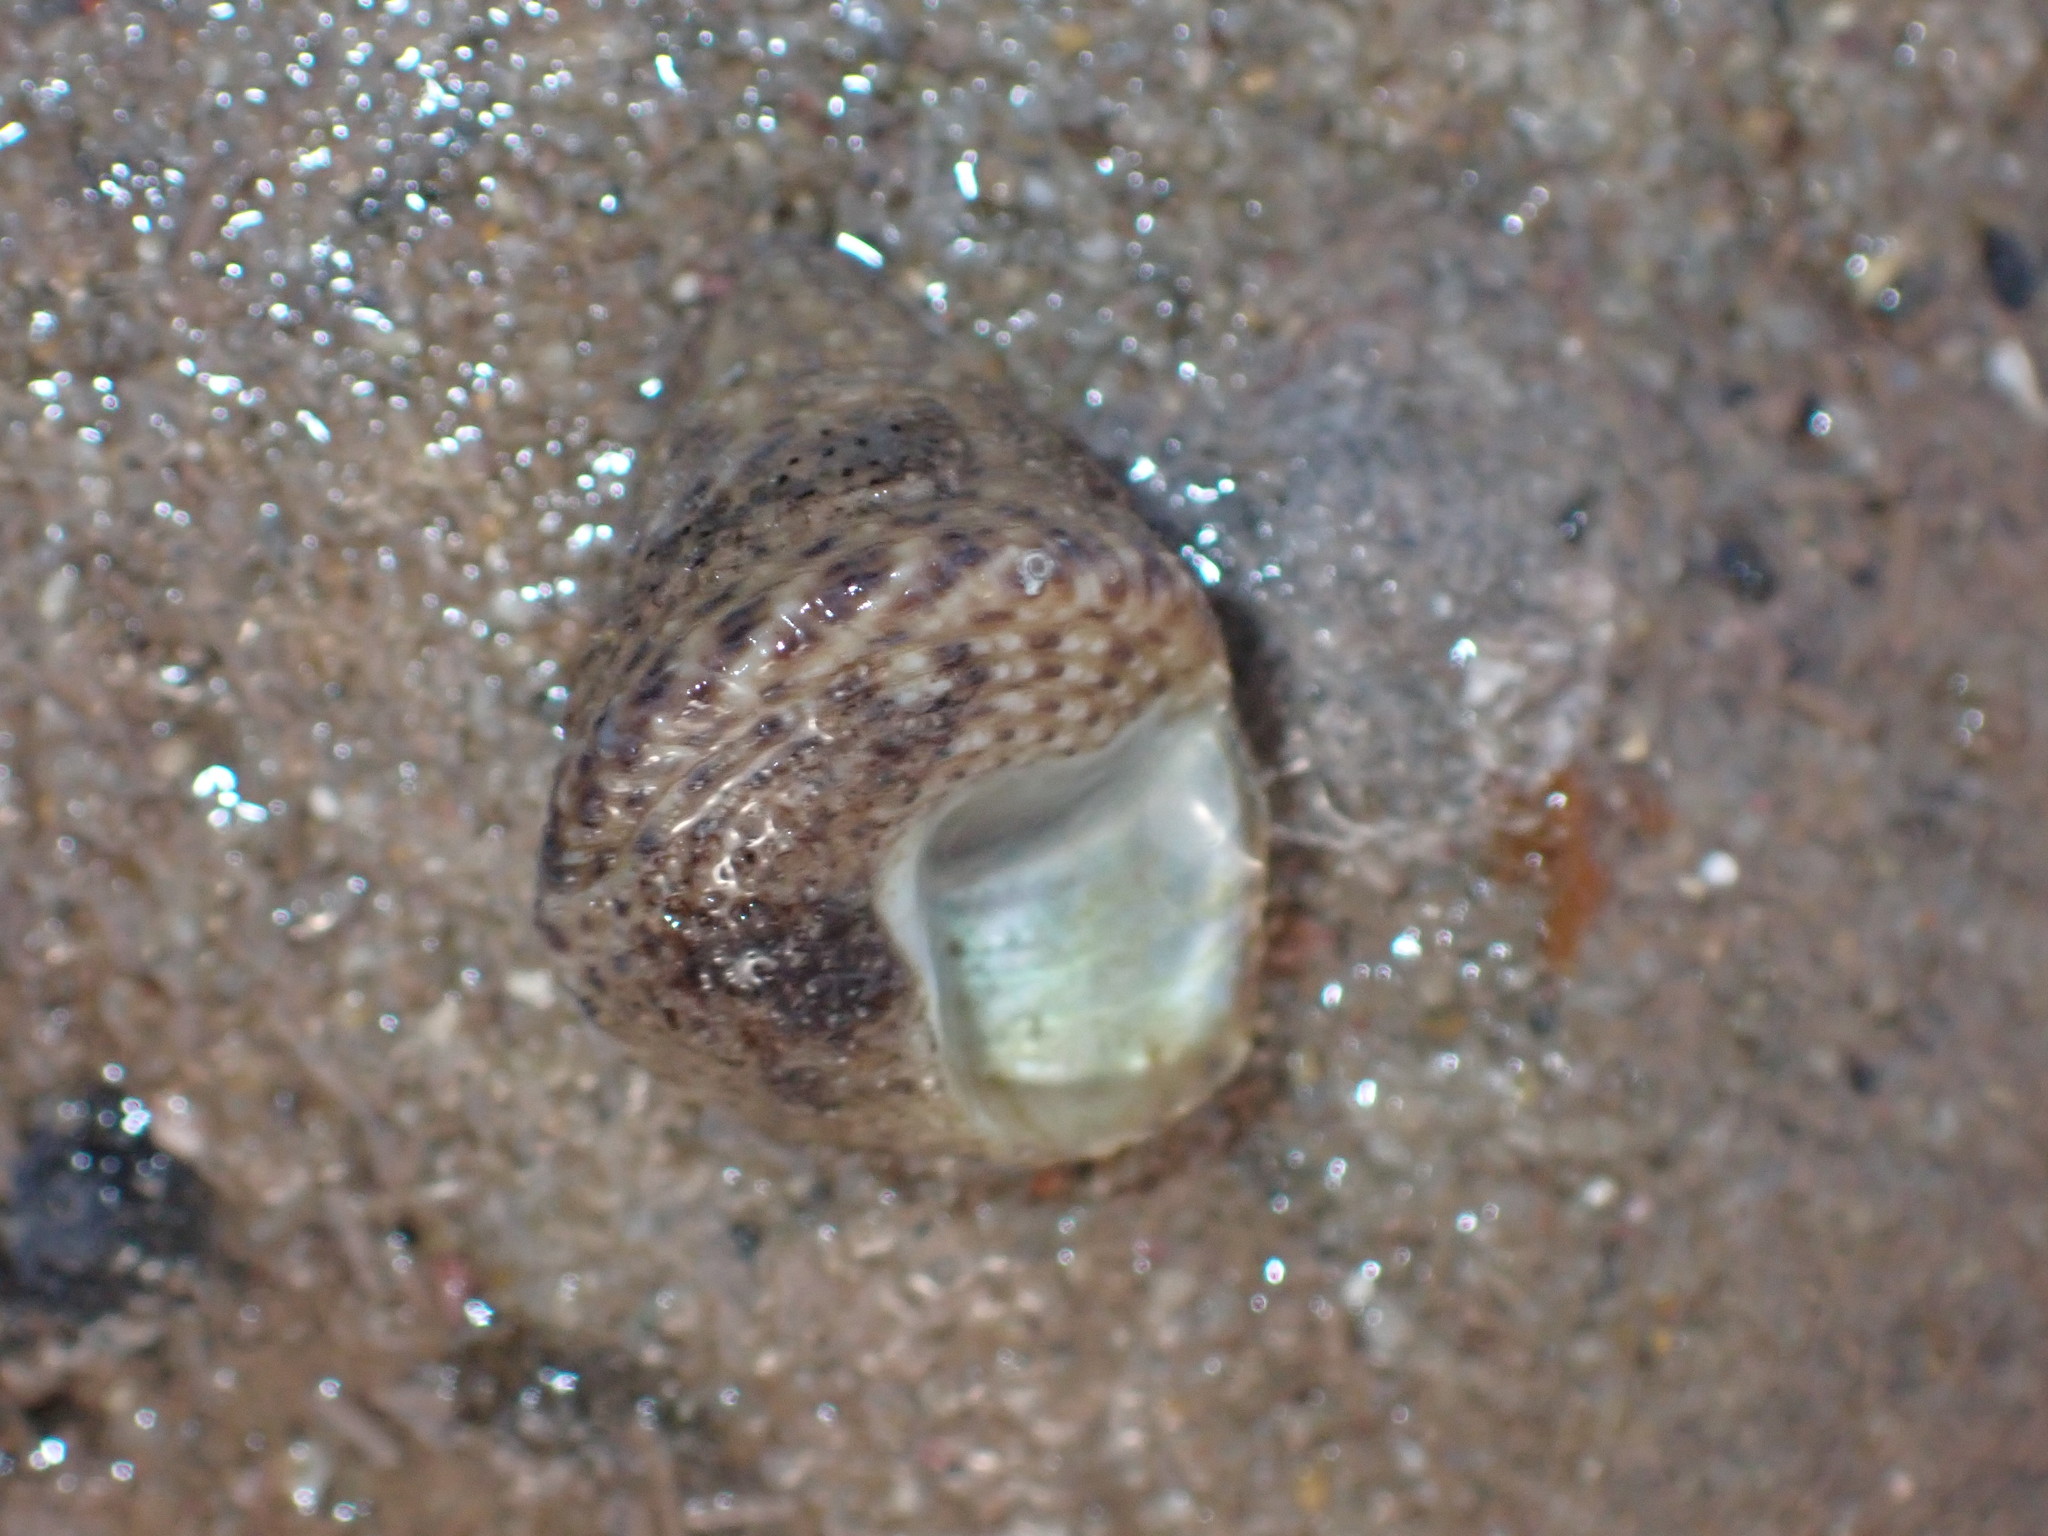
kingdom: Animalia
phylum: Mollusca
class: Gastropoda
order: Trochida
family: Trochidae
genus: Calthalotia
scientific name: Calthalotia fragum
